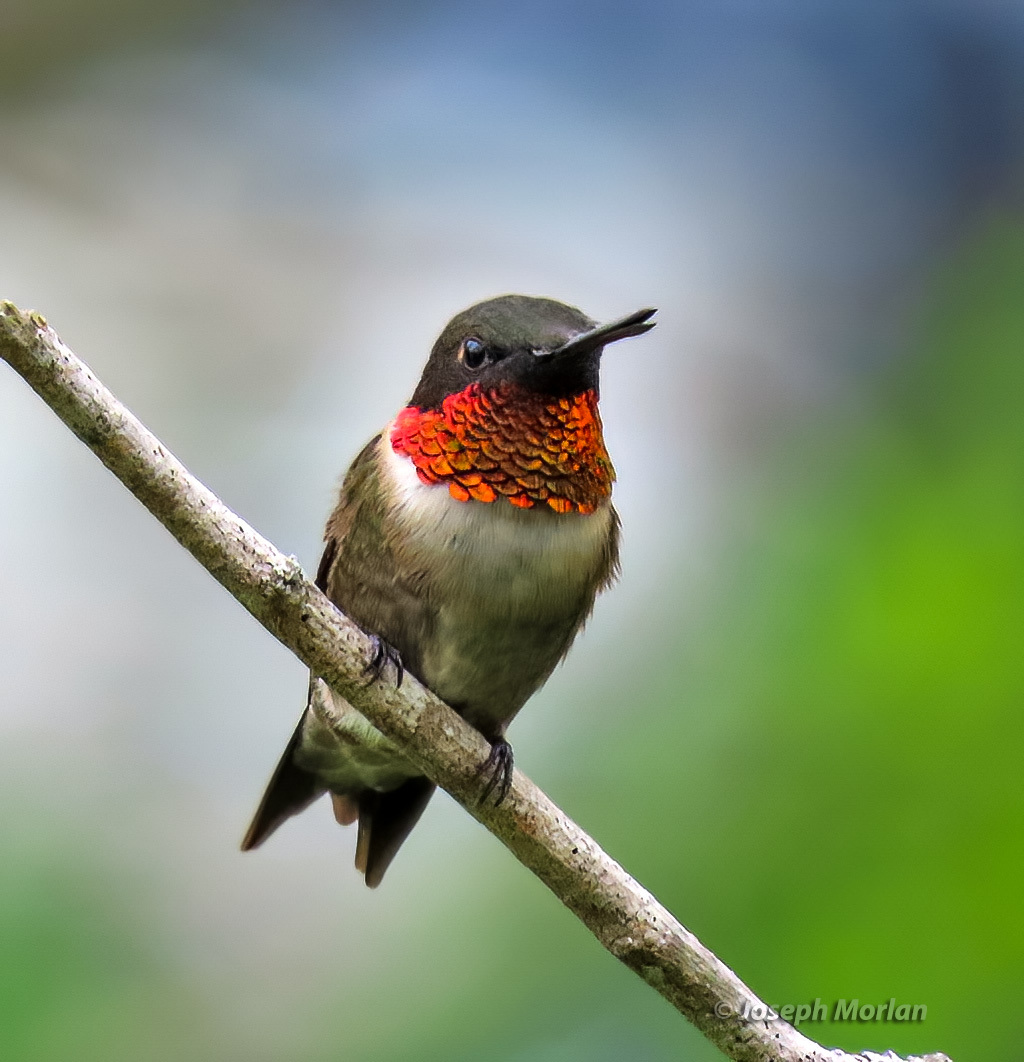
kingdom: Animalia
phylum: Chordata
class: Aves
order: Apodiformes
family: Trochilidae
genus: Archilochus
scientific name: Archilochus colubris
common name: Ruby-throated hummingbird
